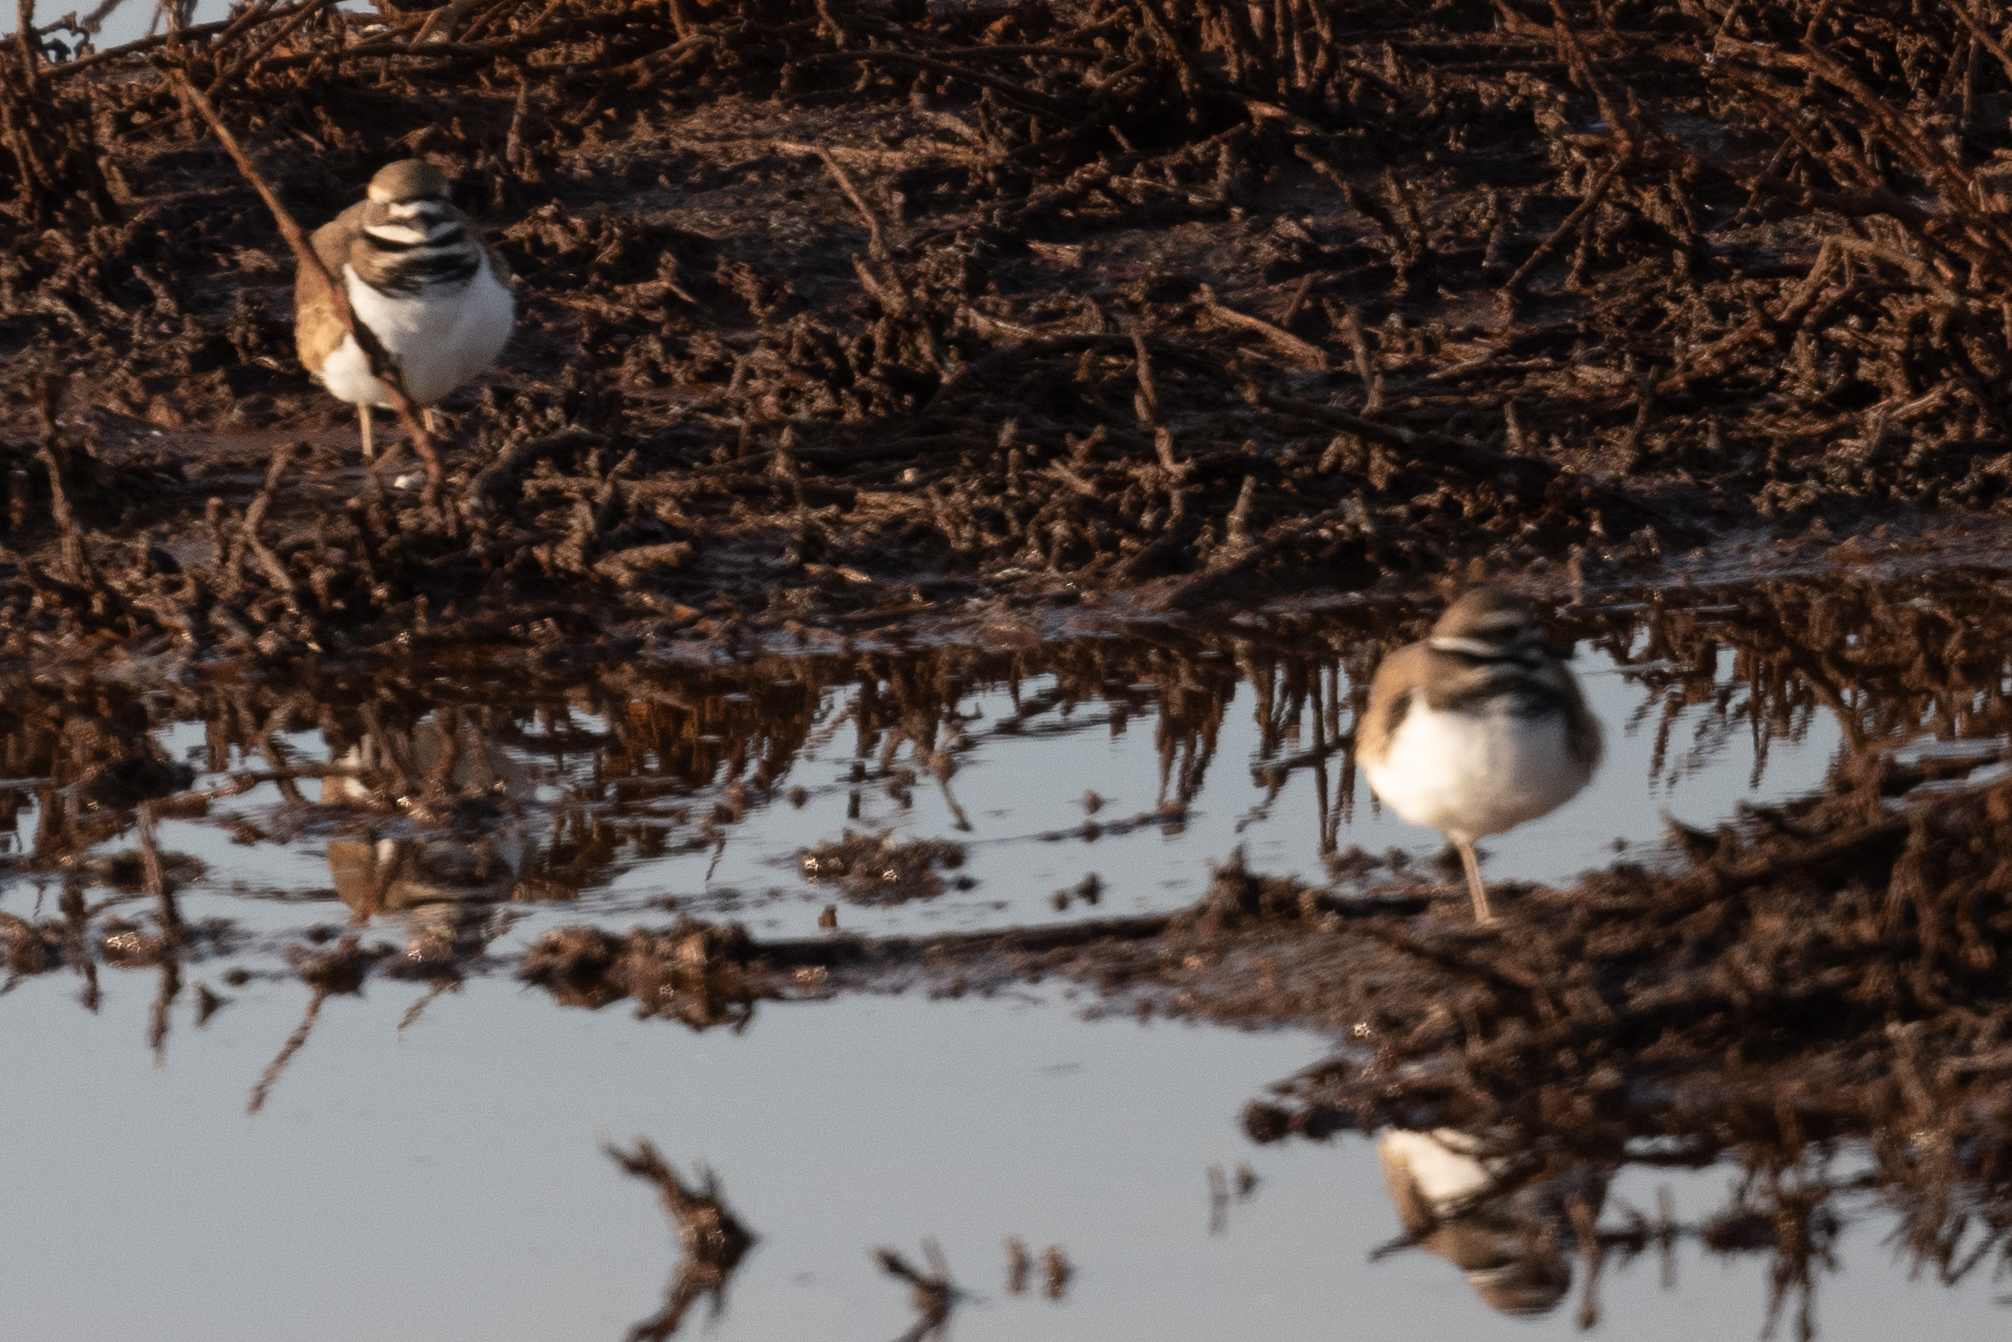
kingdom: Animalia
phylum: Chordata
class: Aves
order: Charadriiformes
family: Charadriidae
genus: Charadrius
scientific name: Charadrius vociferus
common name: Killdeer
